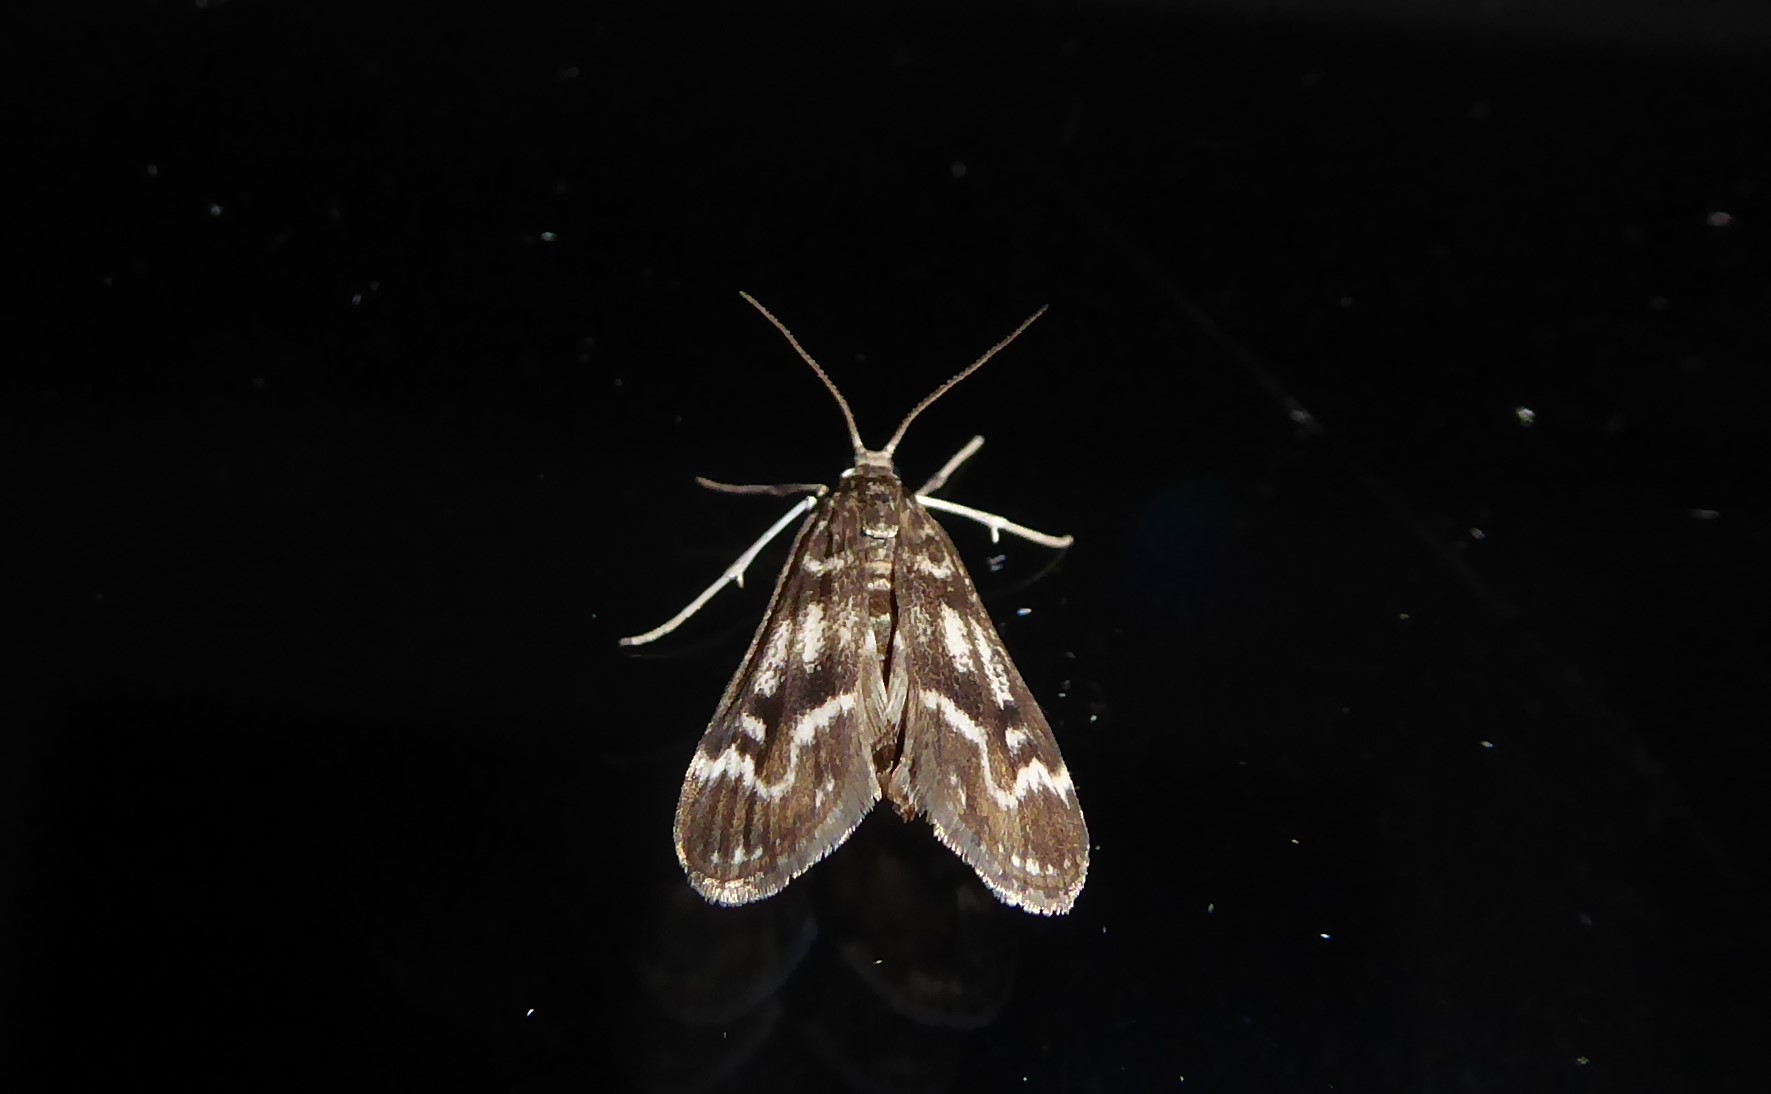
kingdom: Animalia
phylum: Arthropoda
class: Insecta
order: Lepidoptera
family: Crambidae
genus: Hygraula
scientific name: Hygraula nitens
